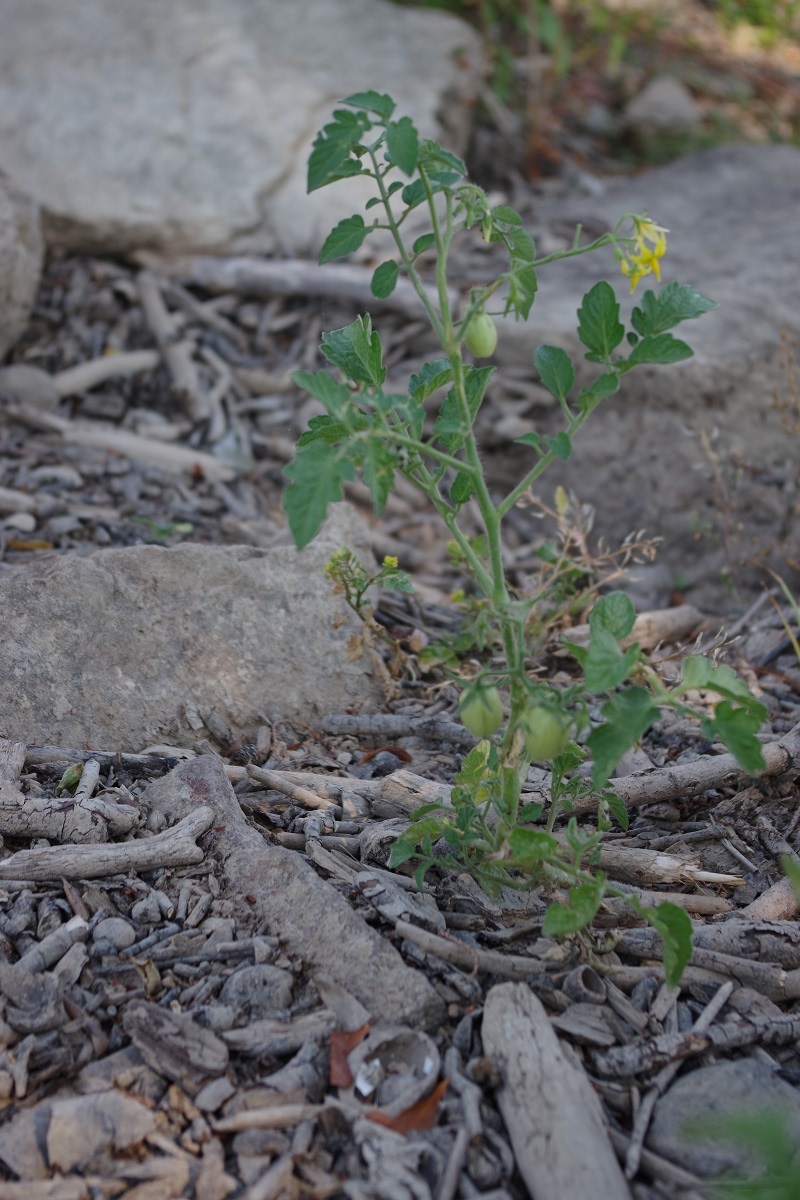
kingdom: Plantae
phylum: Tracheophyta
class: Magnoliopsida
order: Solanales
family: Solanaceae
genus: Solanum
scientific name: Solanum lycopersicum
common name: Garden tomato
